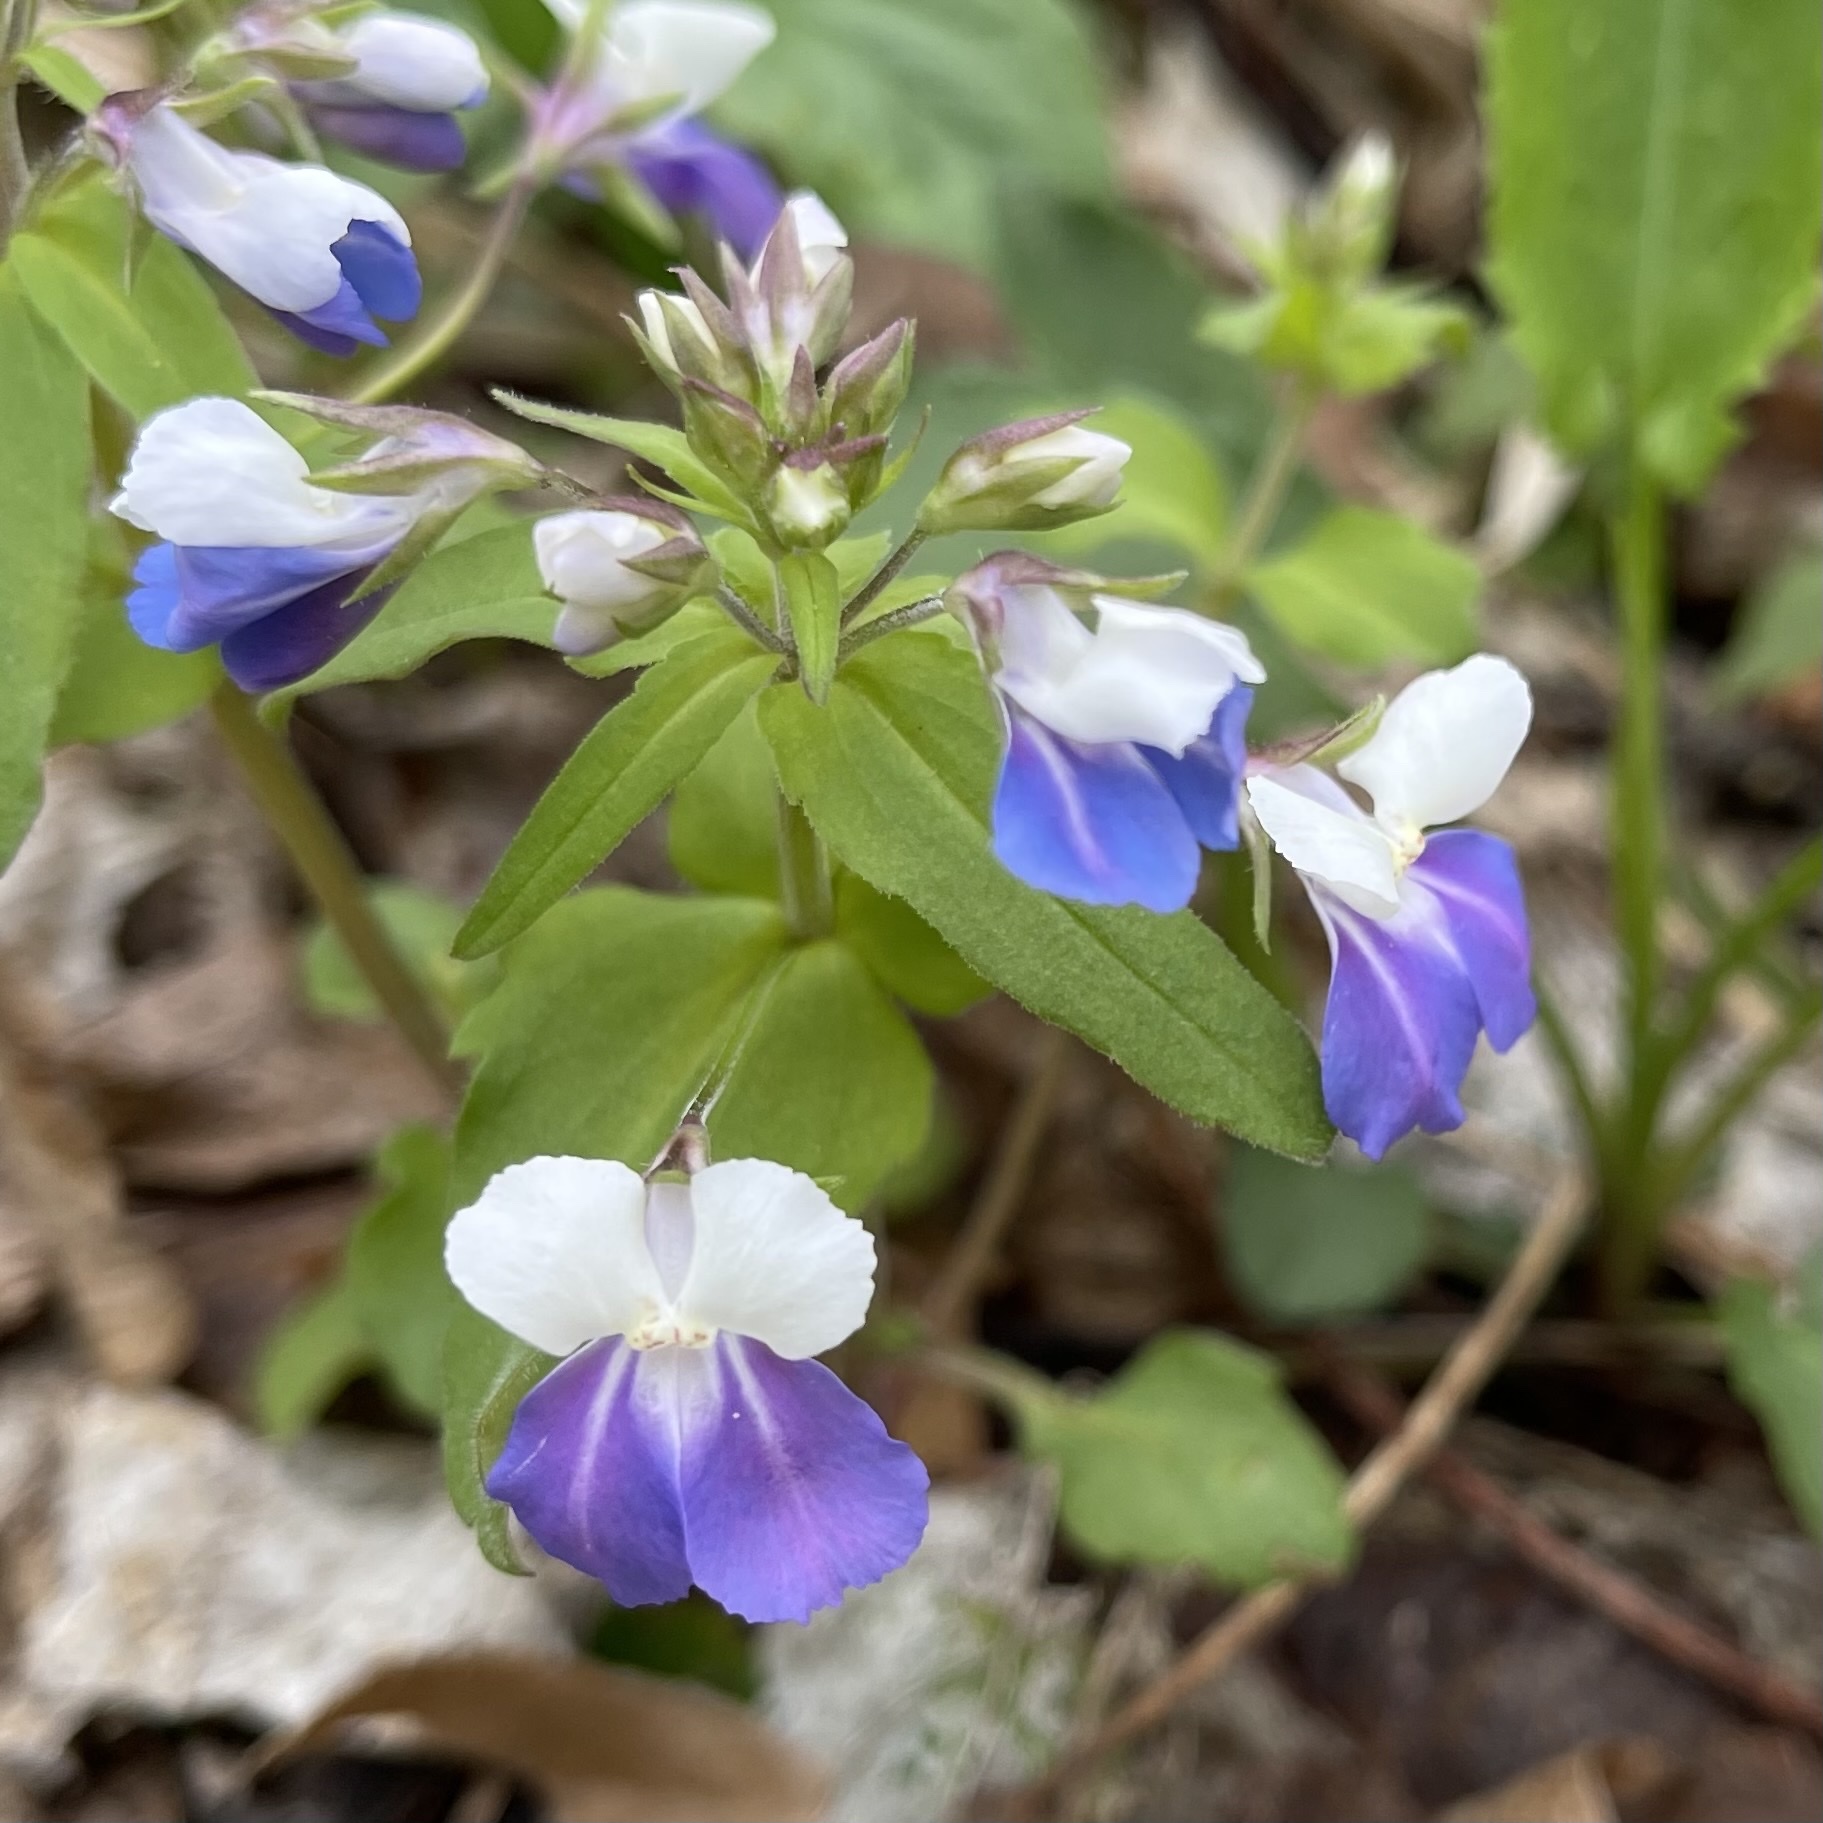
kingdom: Plantae
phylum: Tracheophyta
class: Magnoliopsida
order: Lamiales
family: Plantaginaceae
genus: Collinsia
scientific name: Collinsia verna
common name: Broad-leaved collinsia
